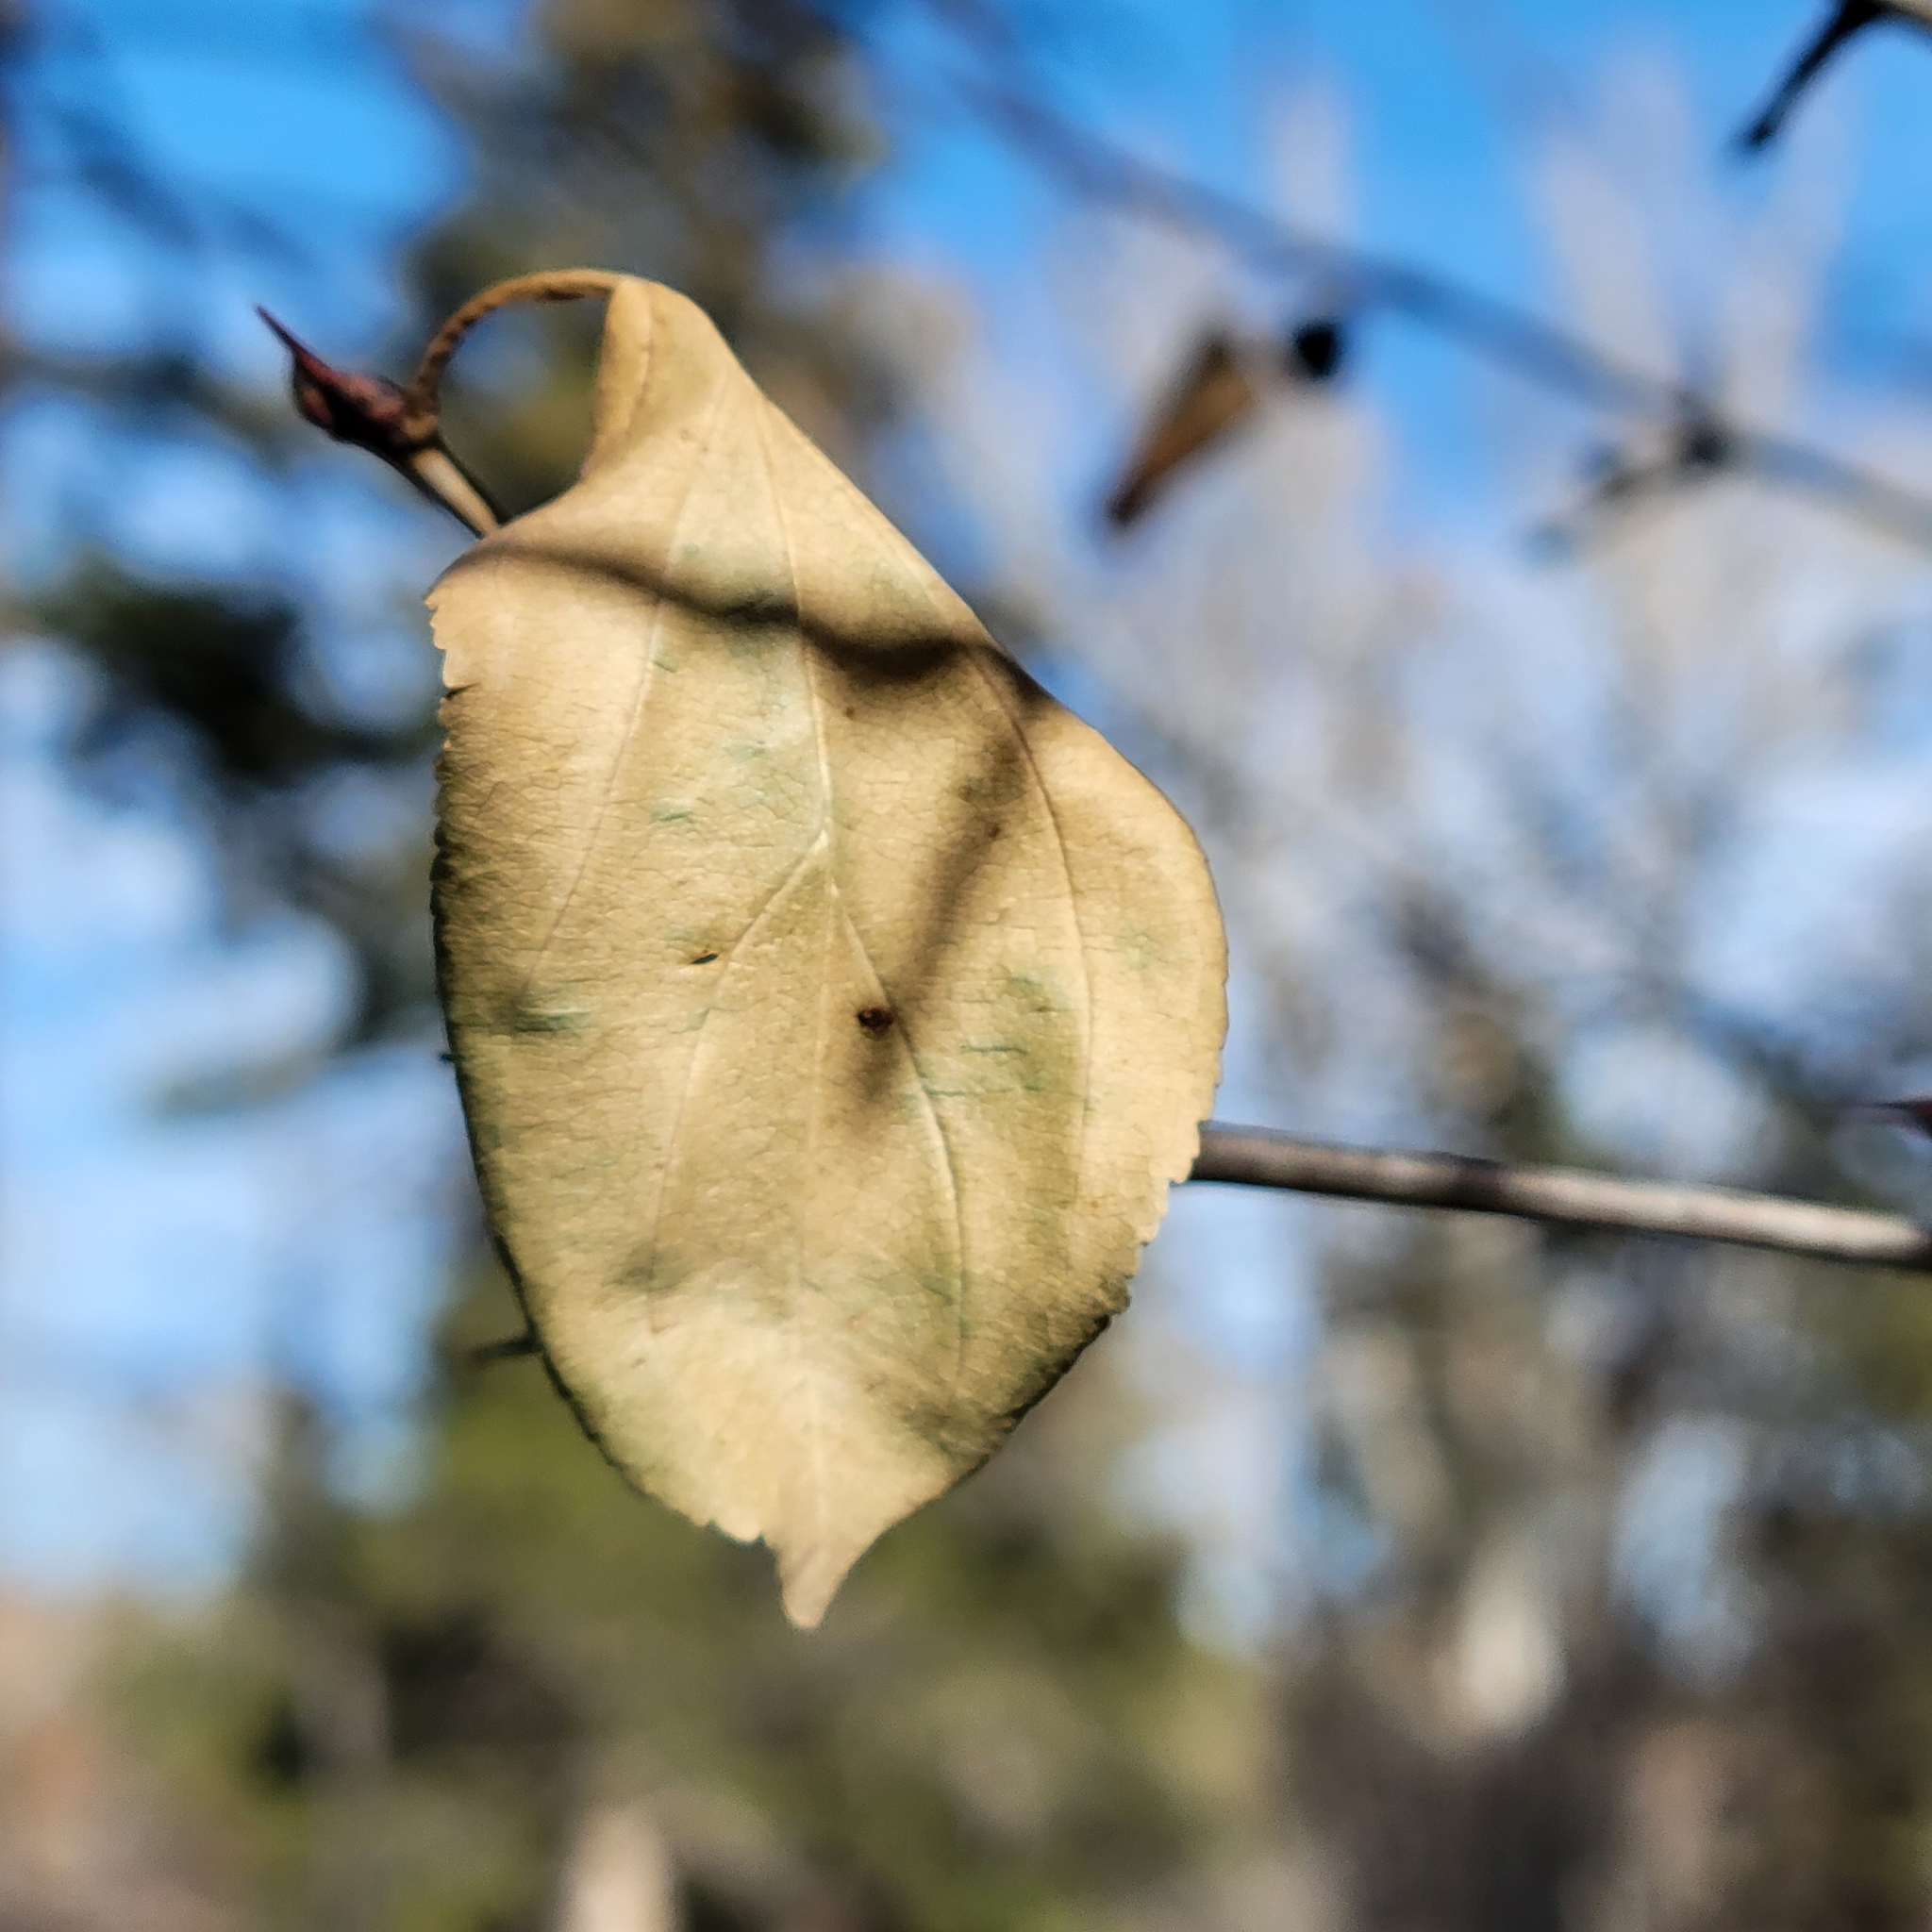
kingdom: Plantae
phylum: Tracheophyta
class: Magnoliopsida
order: Rosales
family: Rhamnaceae
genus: Rhamnus
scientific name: Rhamnus cathartica
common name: Common buckthorn
